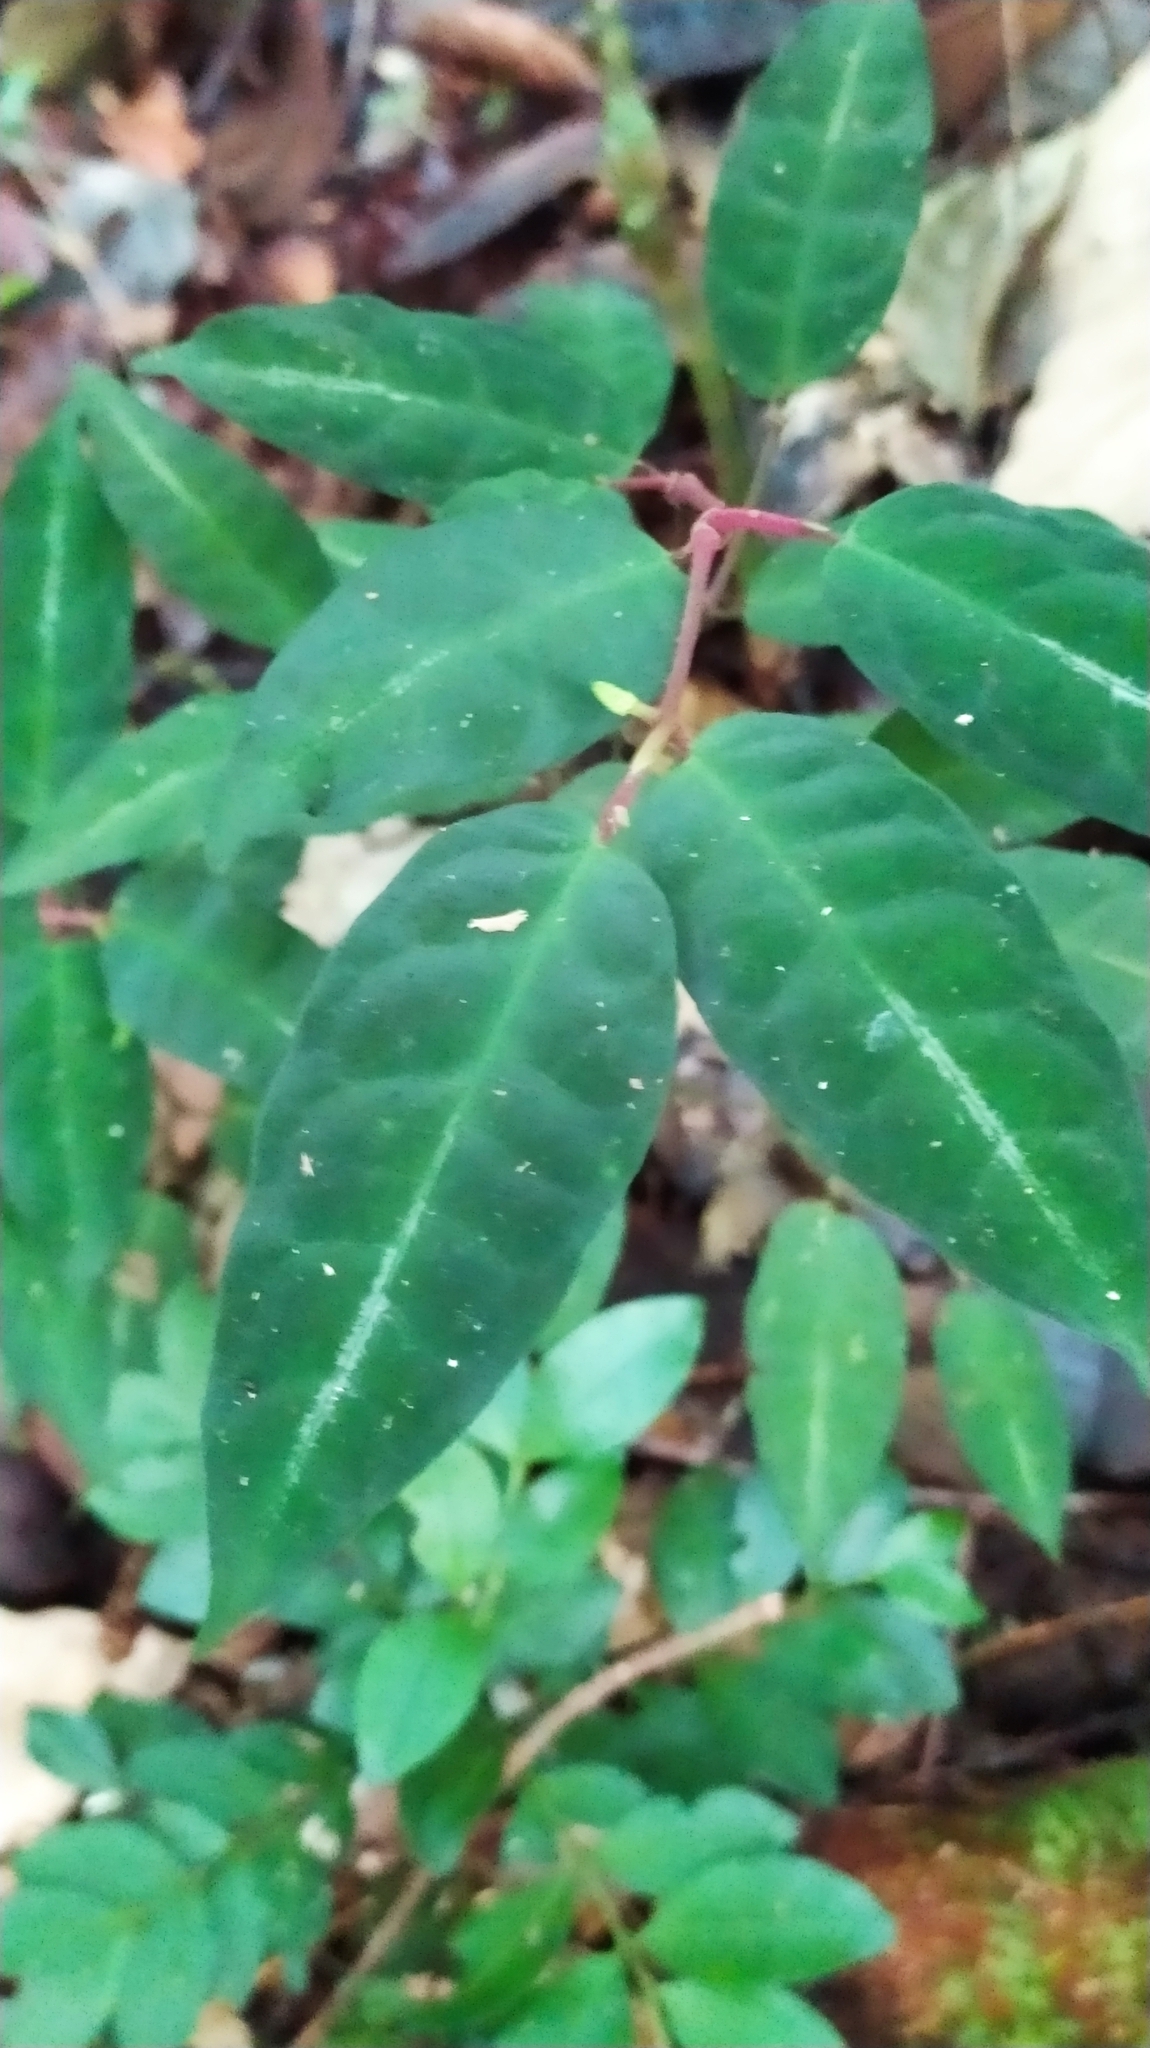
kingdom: Plantae
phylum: Tracheophyta
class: Magnoliopsida
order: Piperales
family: Piperaceae
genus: Piper
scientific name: Piper consanguineum
